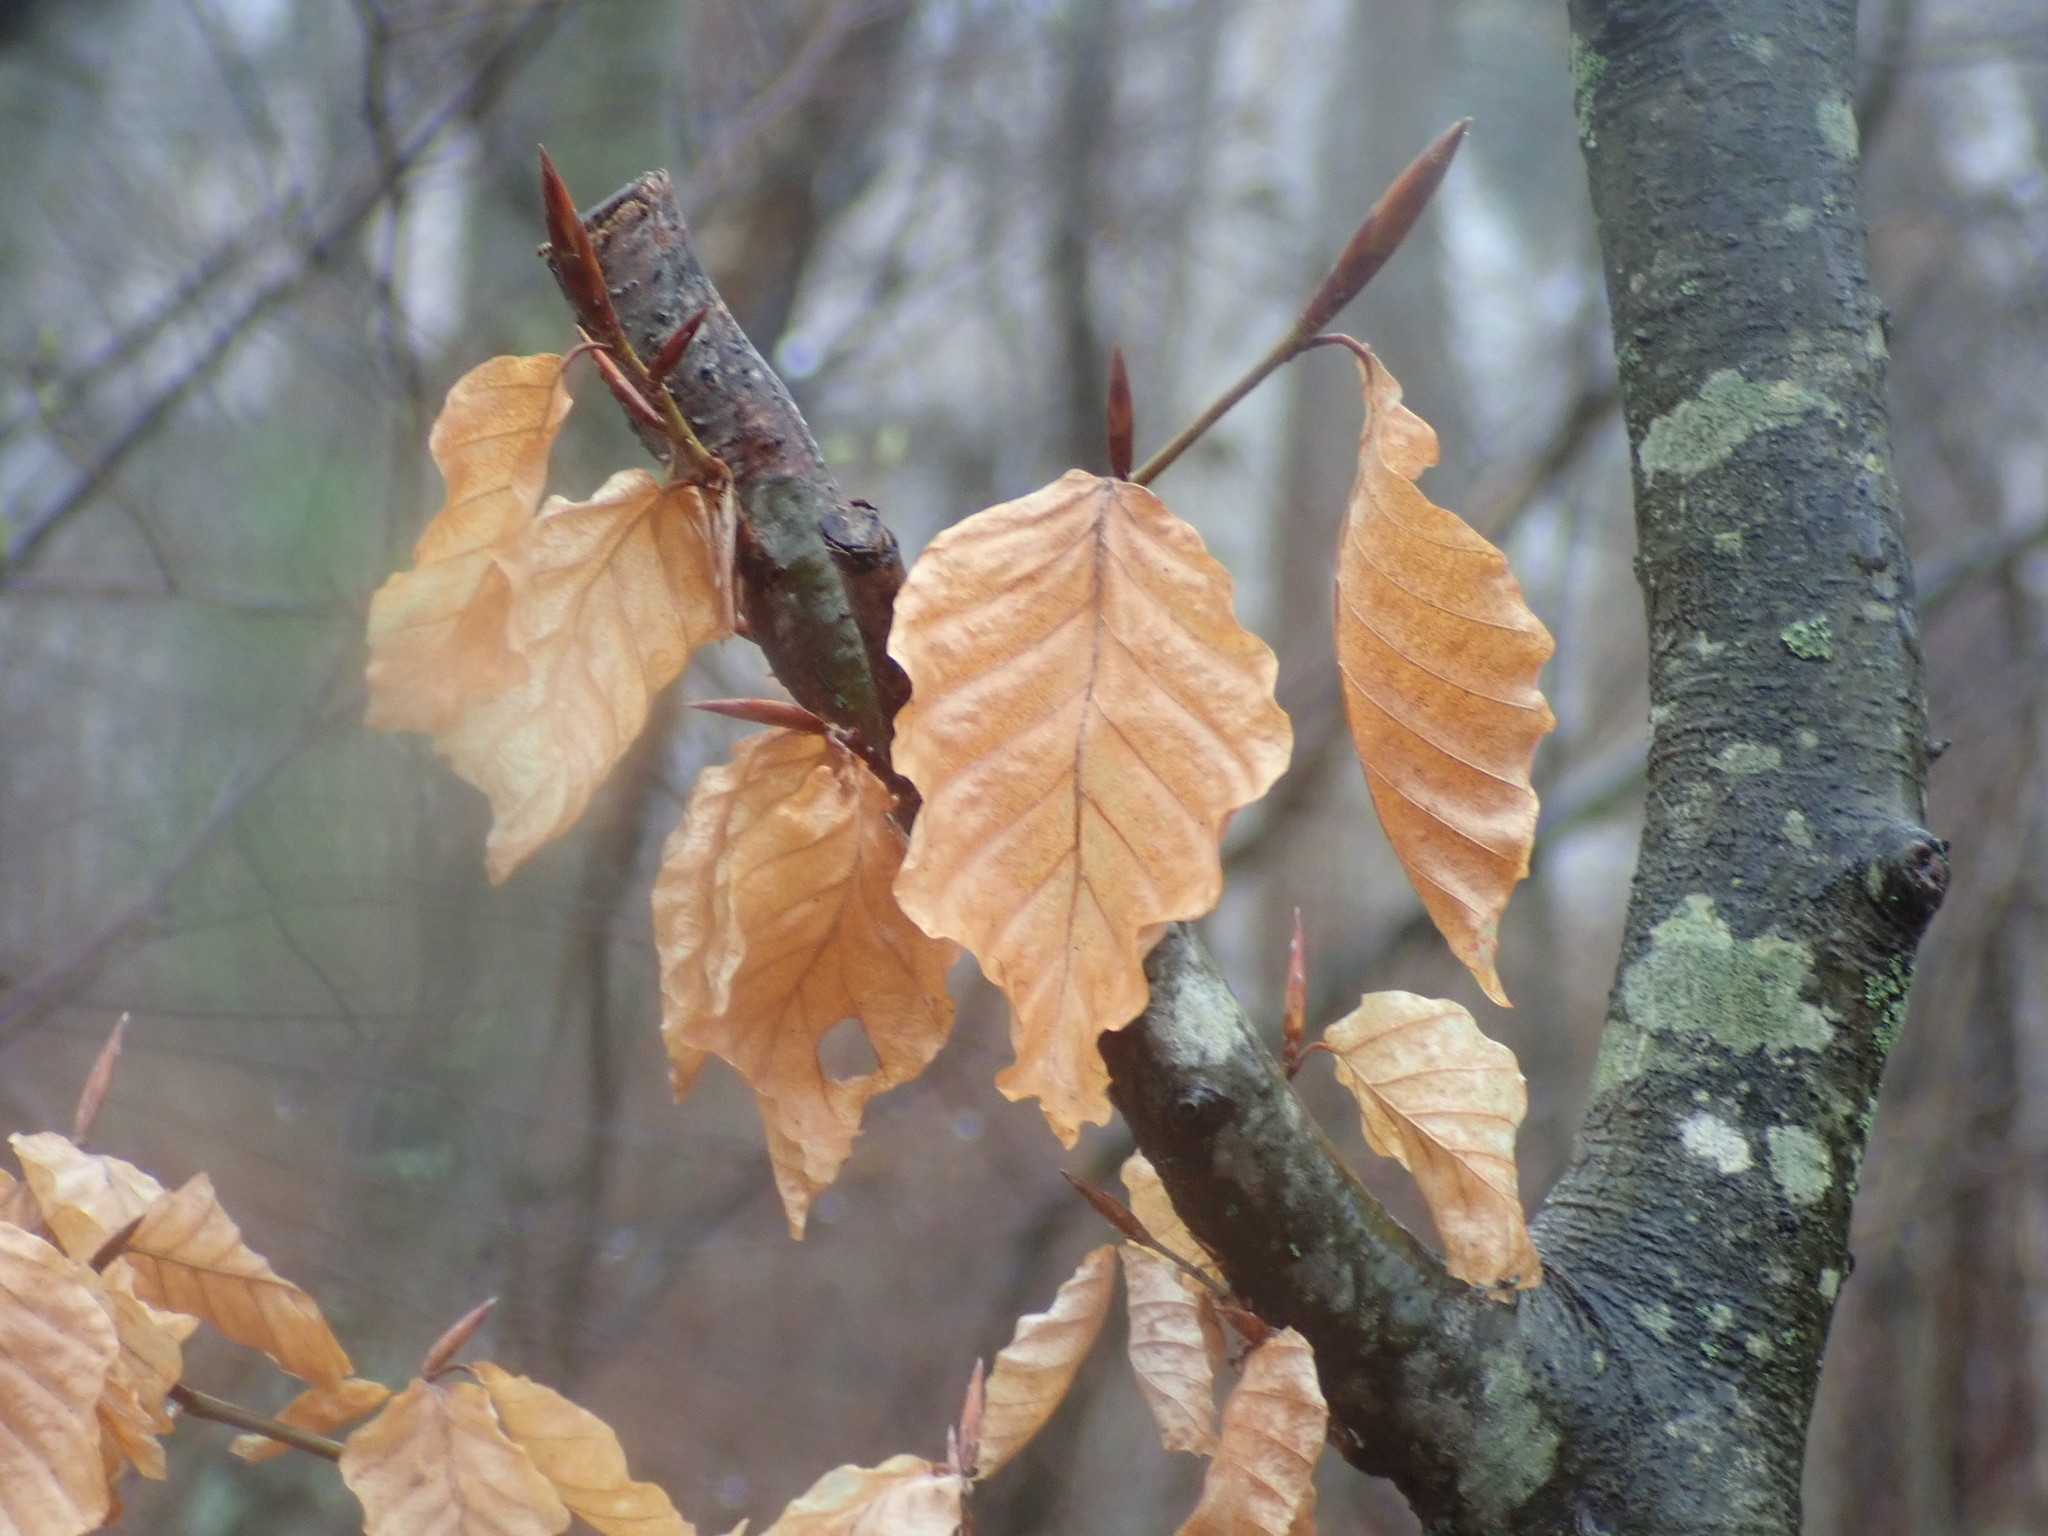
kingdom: Plantae
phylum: Tracheophyta
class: Magnoliopsida
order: Fagales
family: Fagaceae
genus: Fagus
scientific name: Fagus grandifolia
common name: American beech
